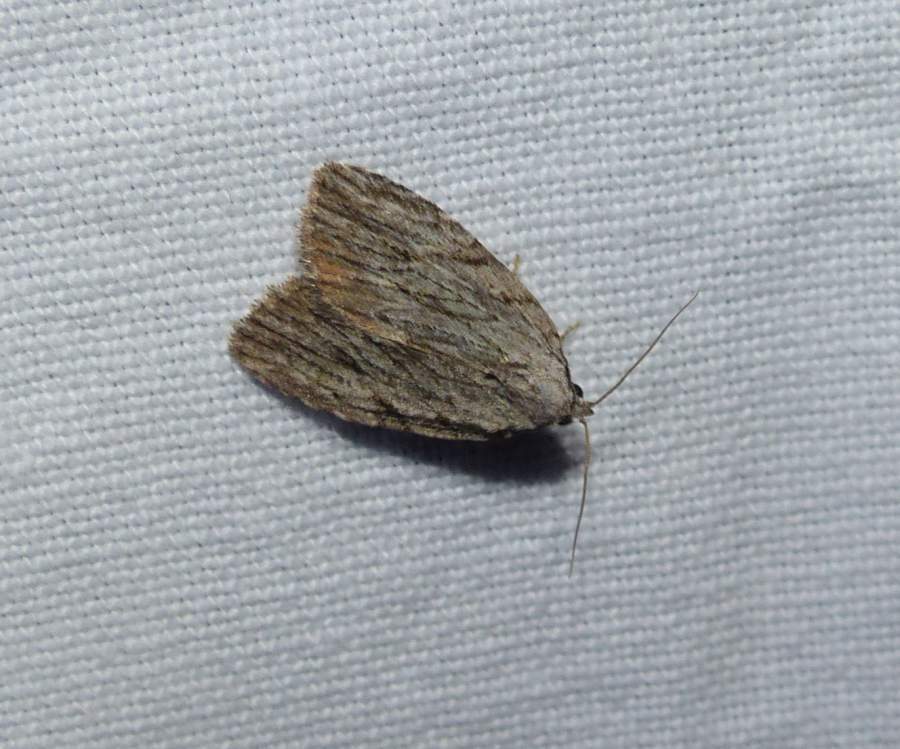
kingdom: Animalia
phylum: Arthropoda
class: Insecta
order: Lepidoptera
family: Noctuidae
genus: Balsa
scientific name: Balsa tristrigella
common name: Three-lined balsa moth
